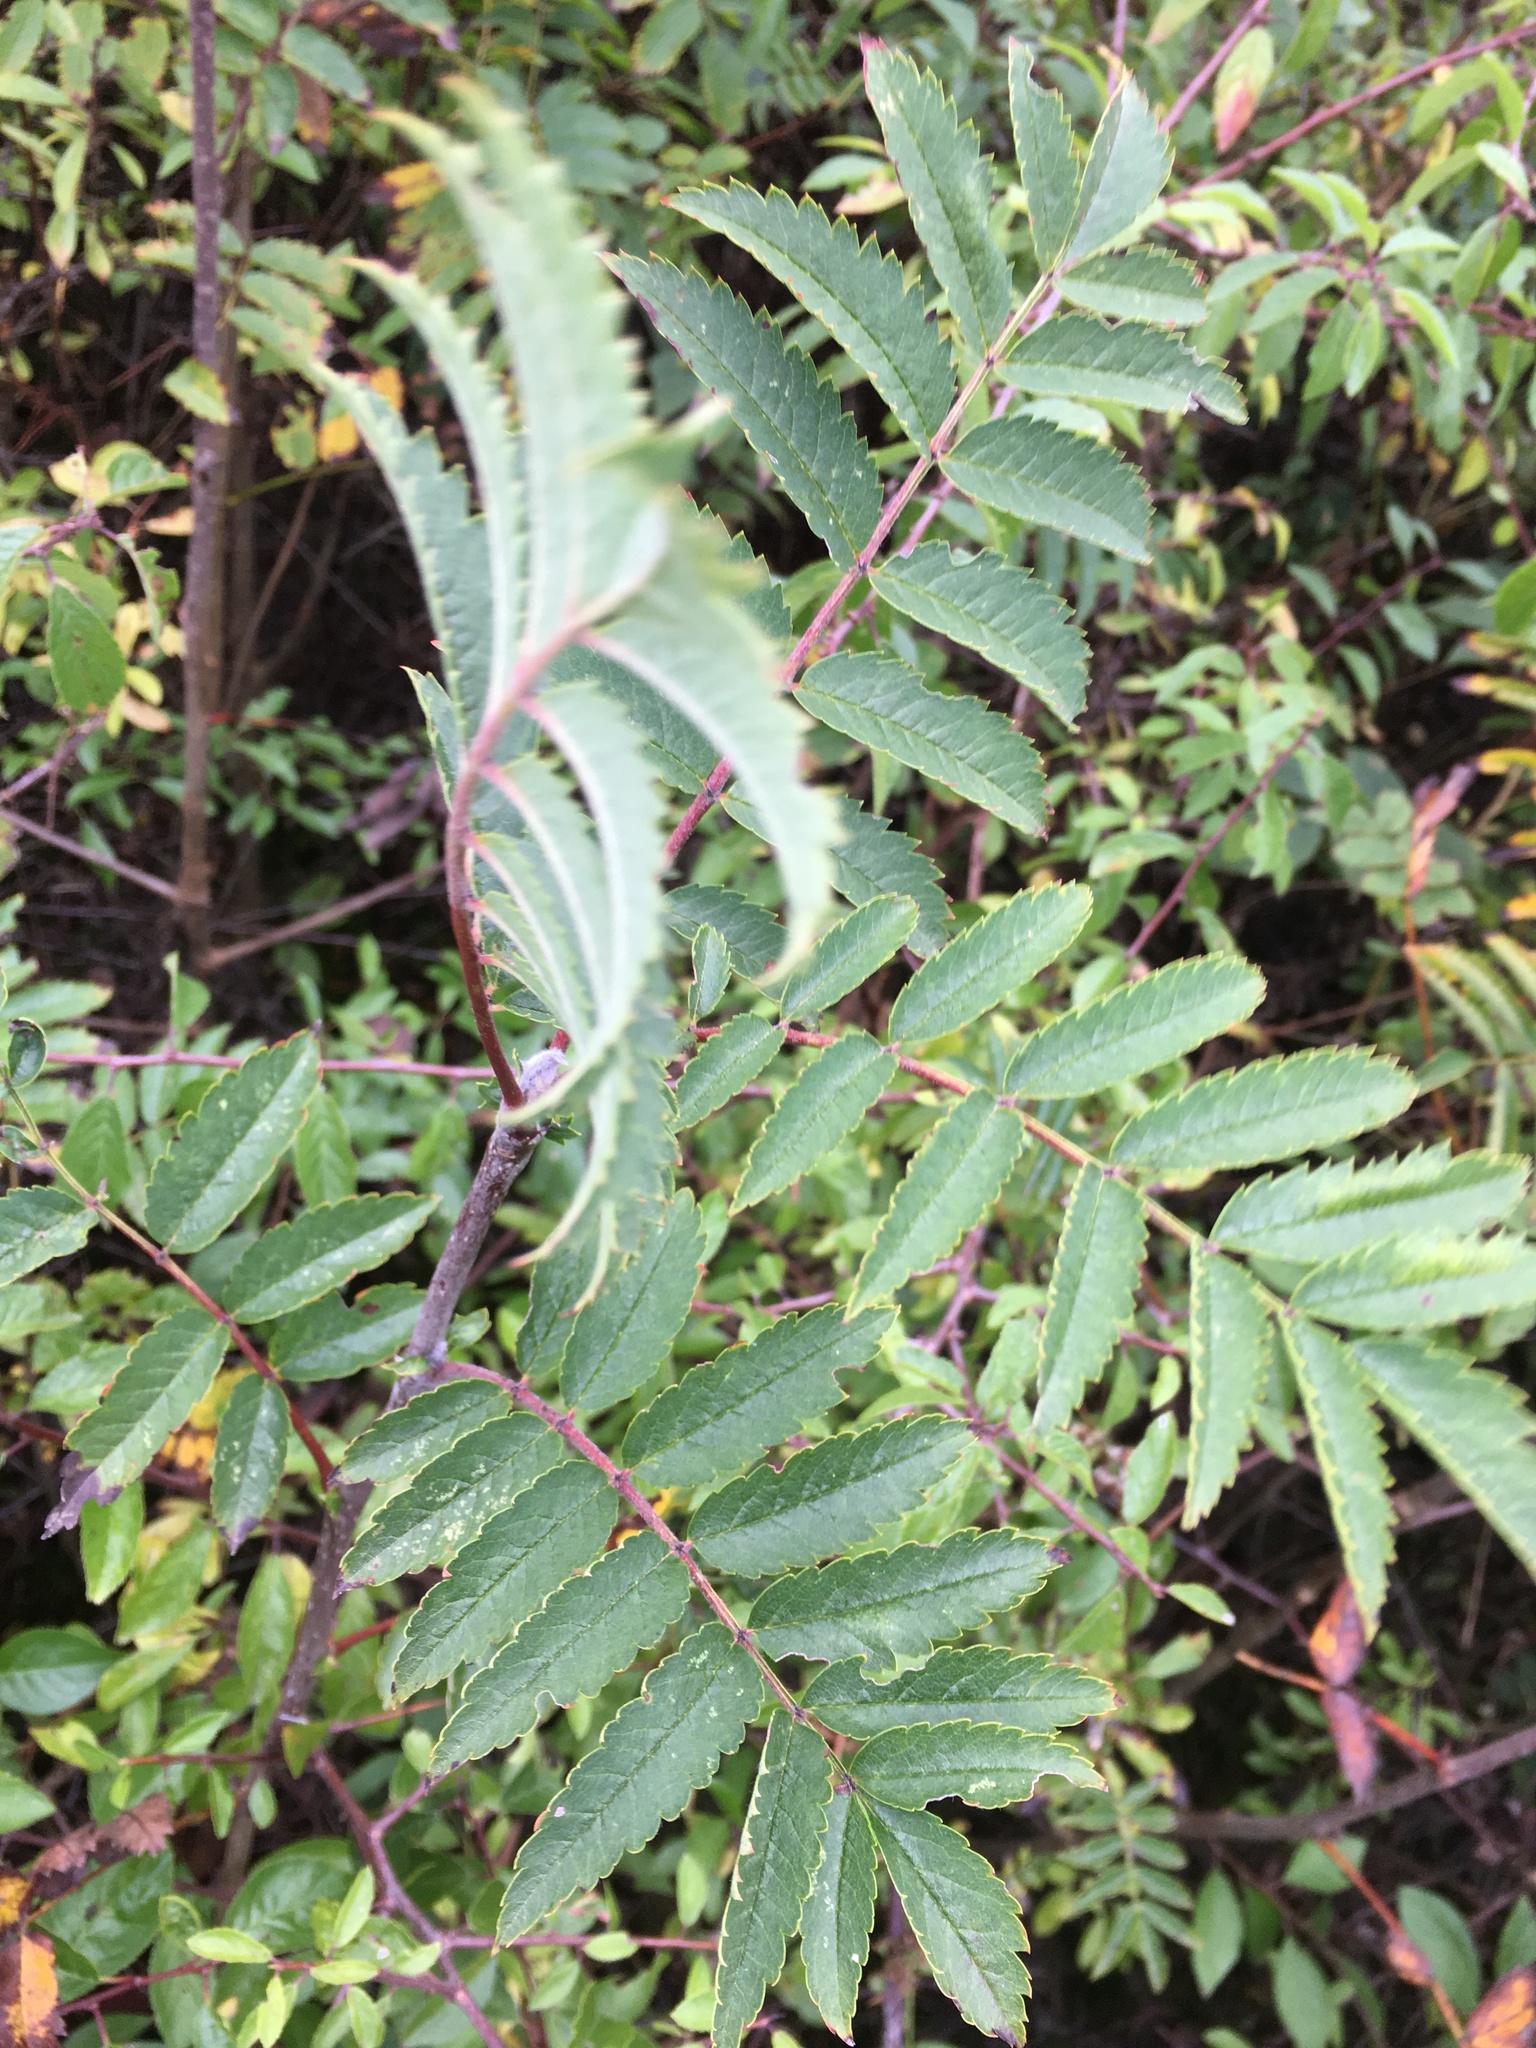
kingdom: Plantae
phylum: Tracheophyta
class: Magnoliopsida
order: Rosales
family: Rosaceae
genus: Sorbus
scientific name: Sorbus aucuparia
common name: Rowan
